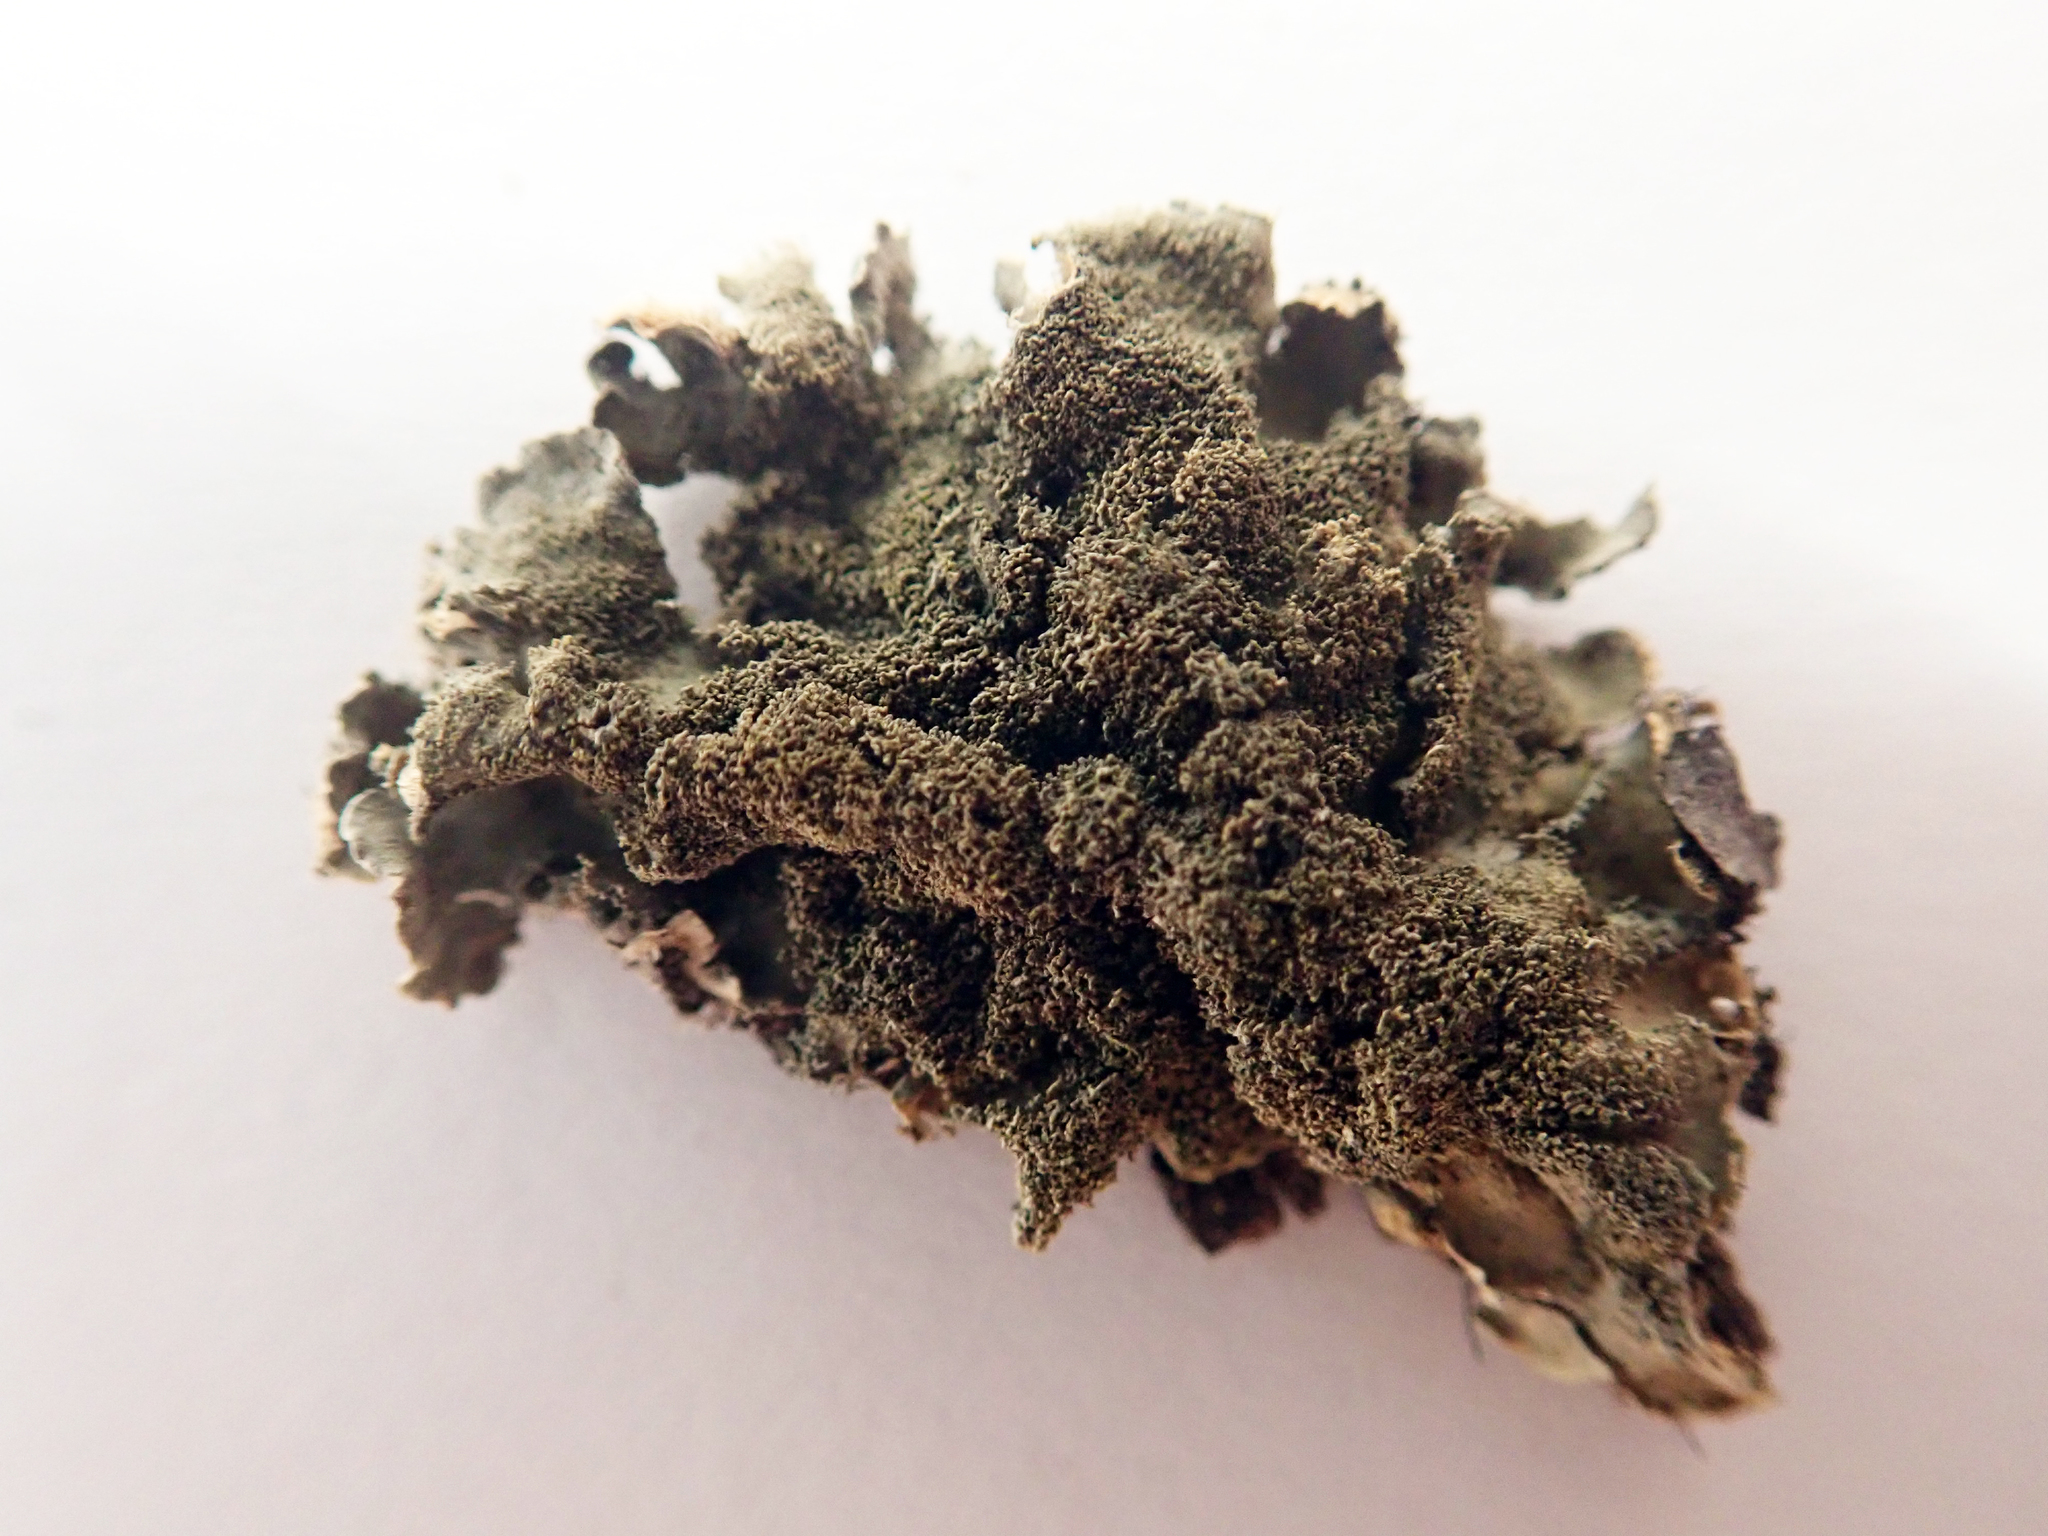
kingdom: Fungi
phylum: Ascomycota
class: Lecanoromycetes
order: Peltigerales
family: Coccocarpiaceae
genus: Coccocarpia
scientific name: Coccocarpia pellita
